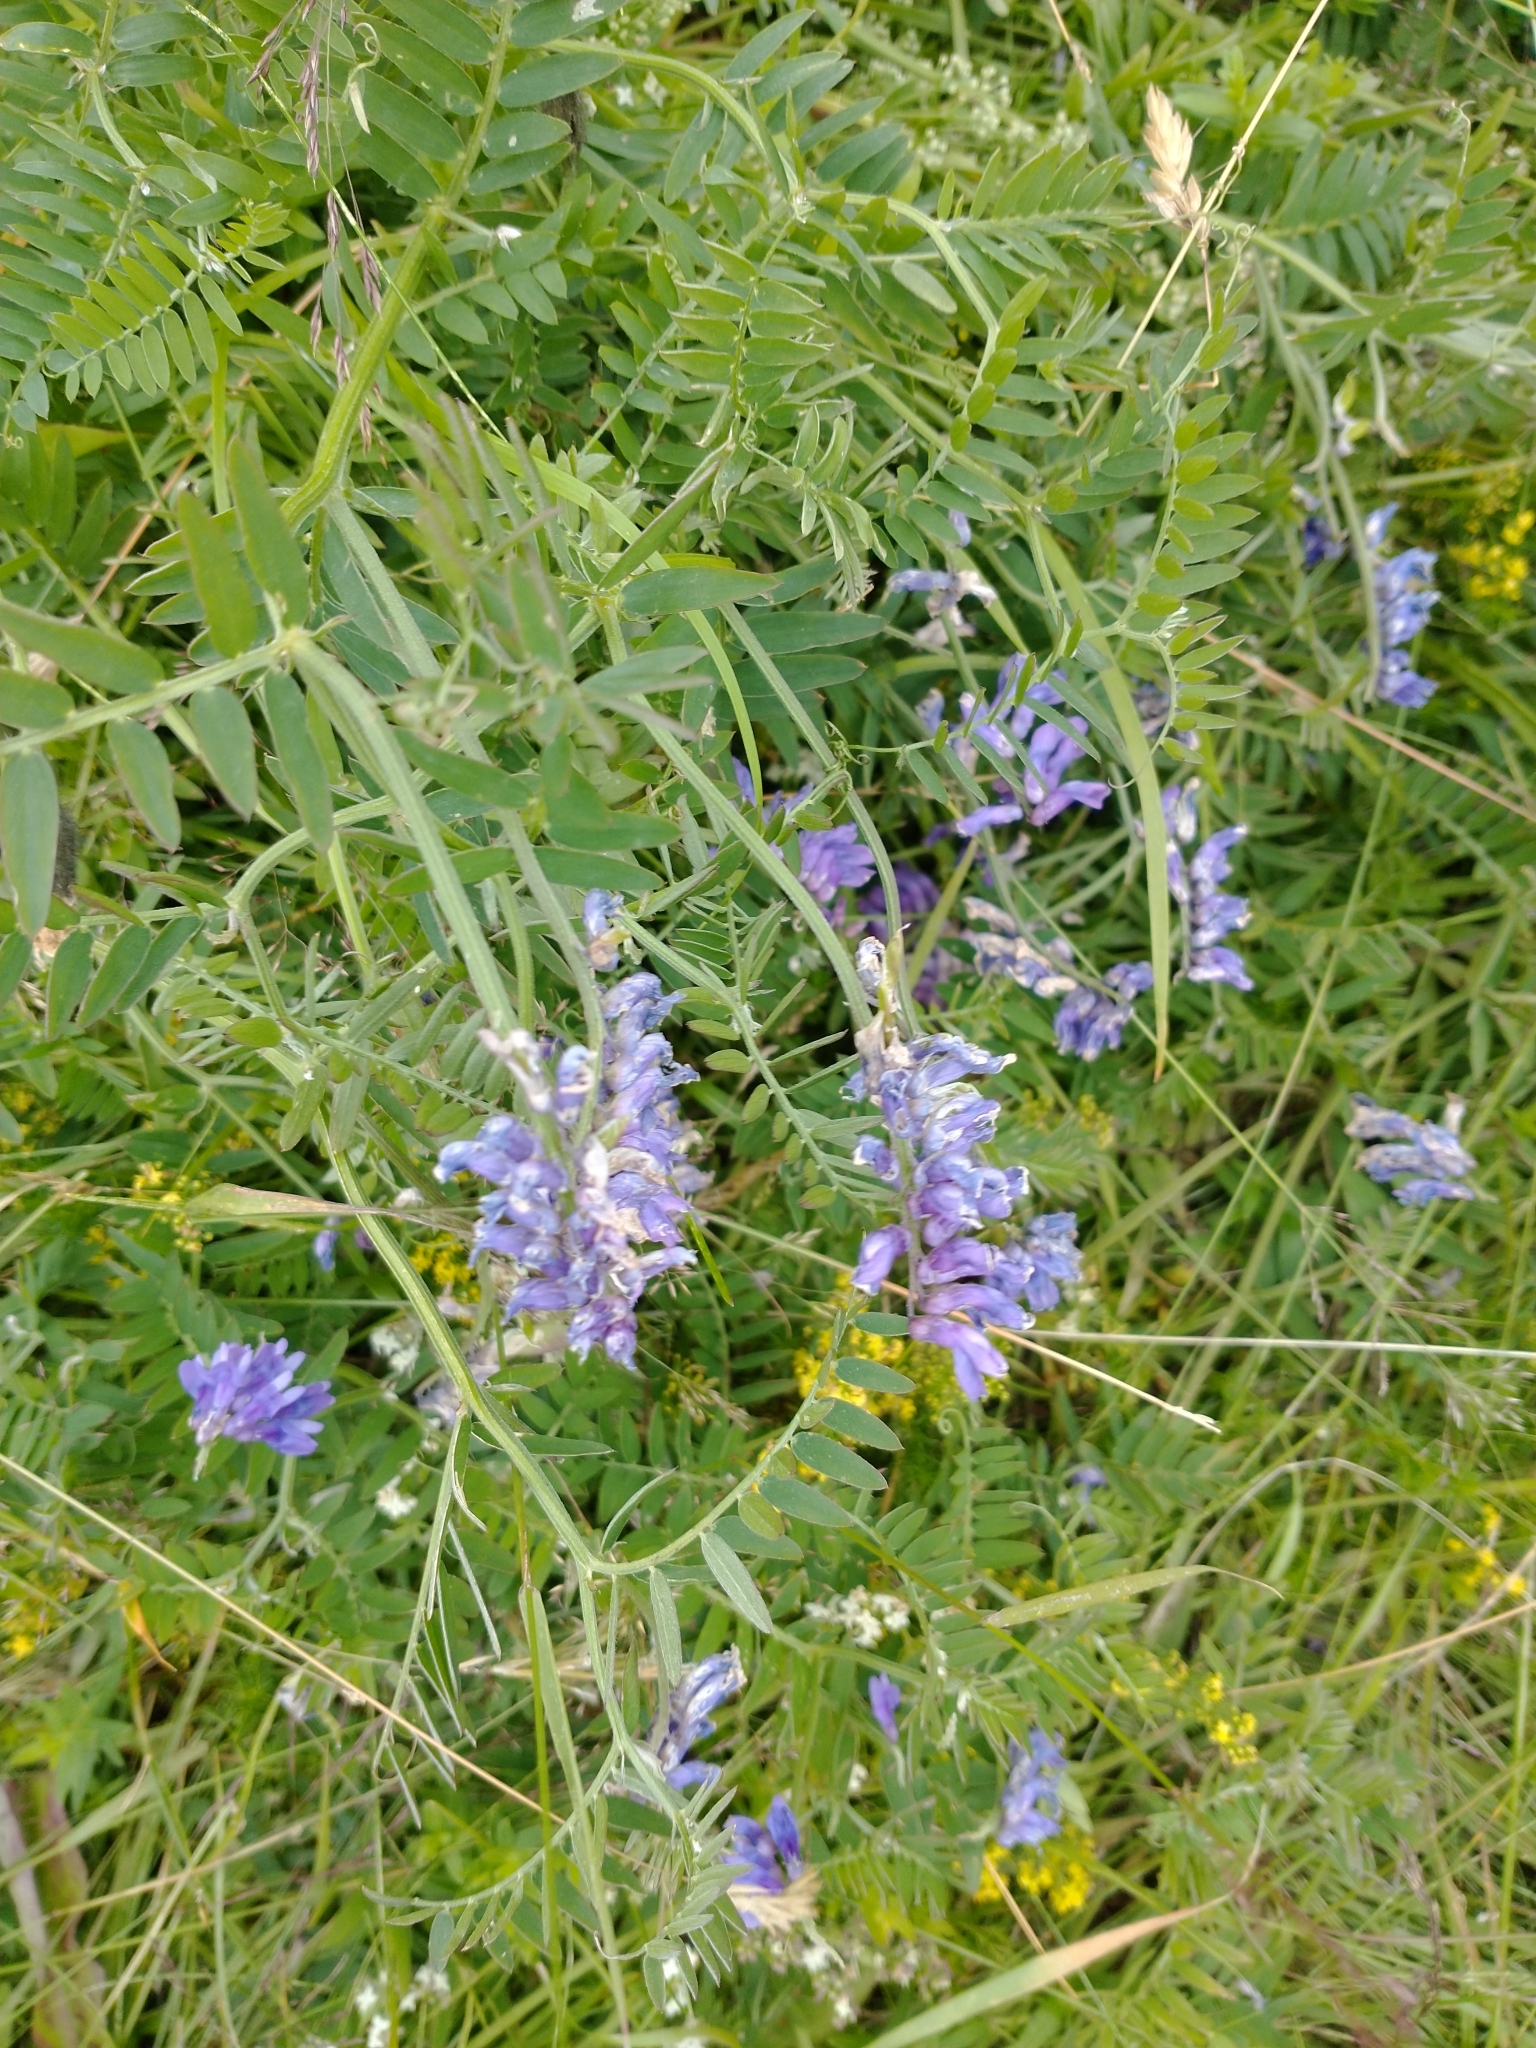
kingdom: Plantae
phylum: Tracheophyta
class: Magnoliopsida
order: Fabales
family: Fabaceae
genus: Vicia
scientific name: Vicia cracca
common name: Bird vetch
